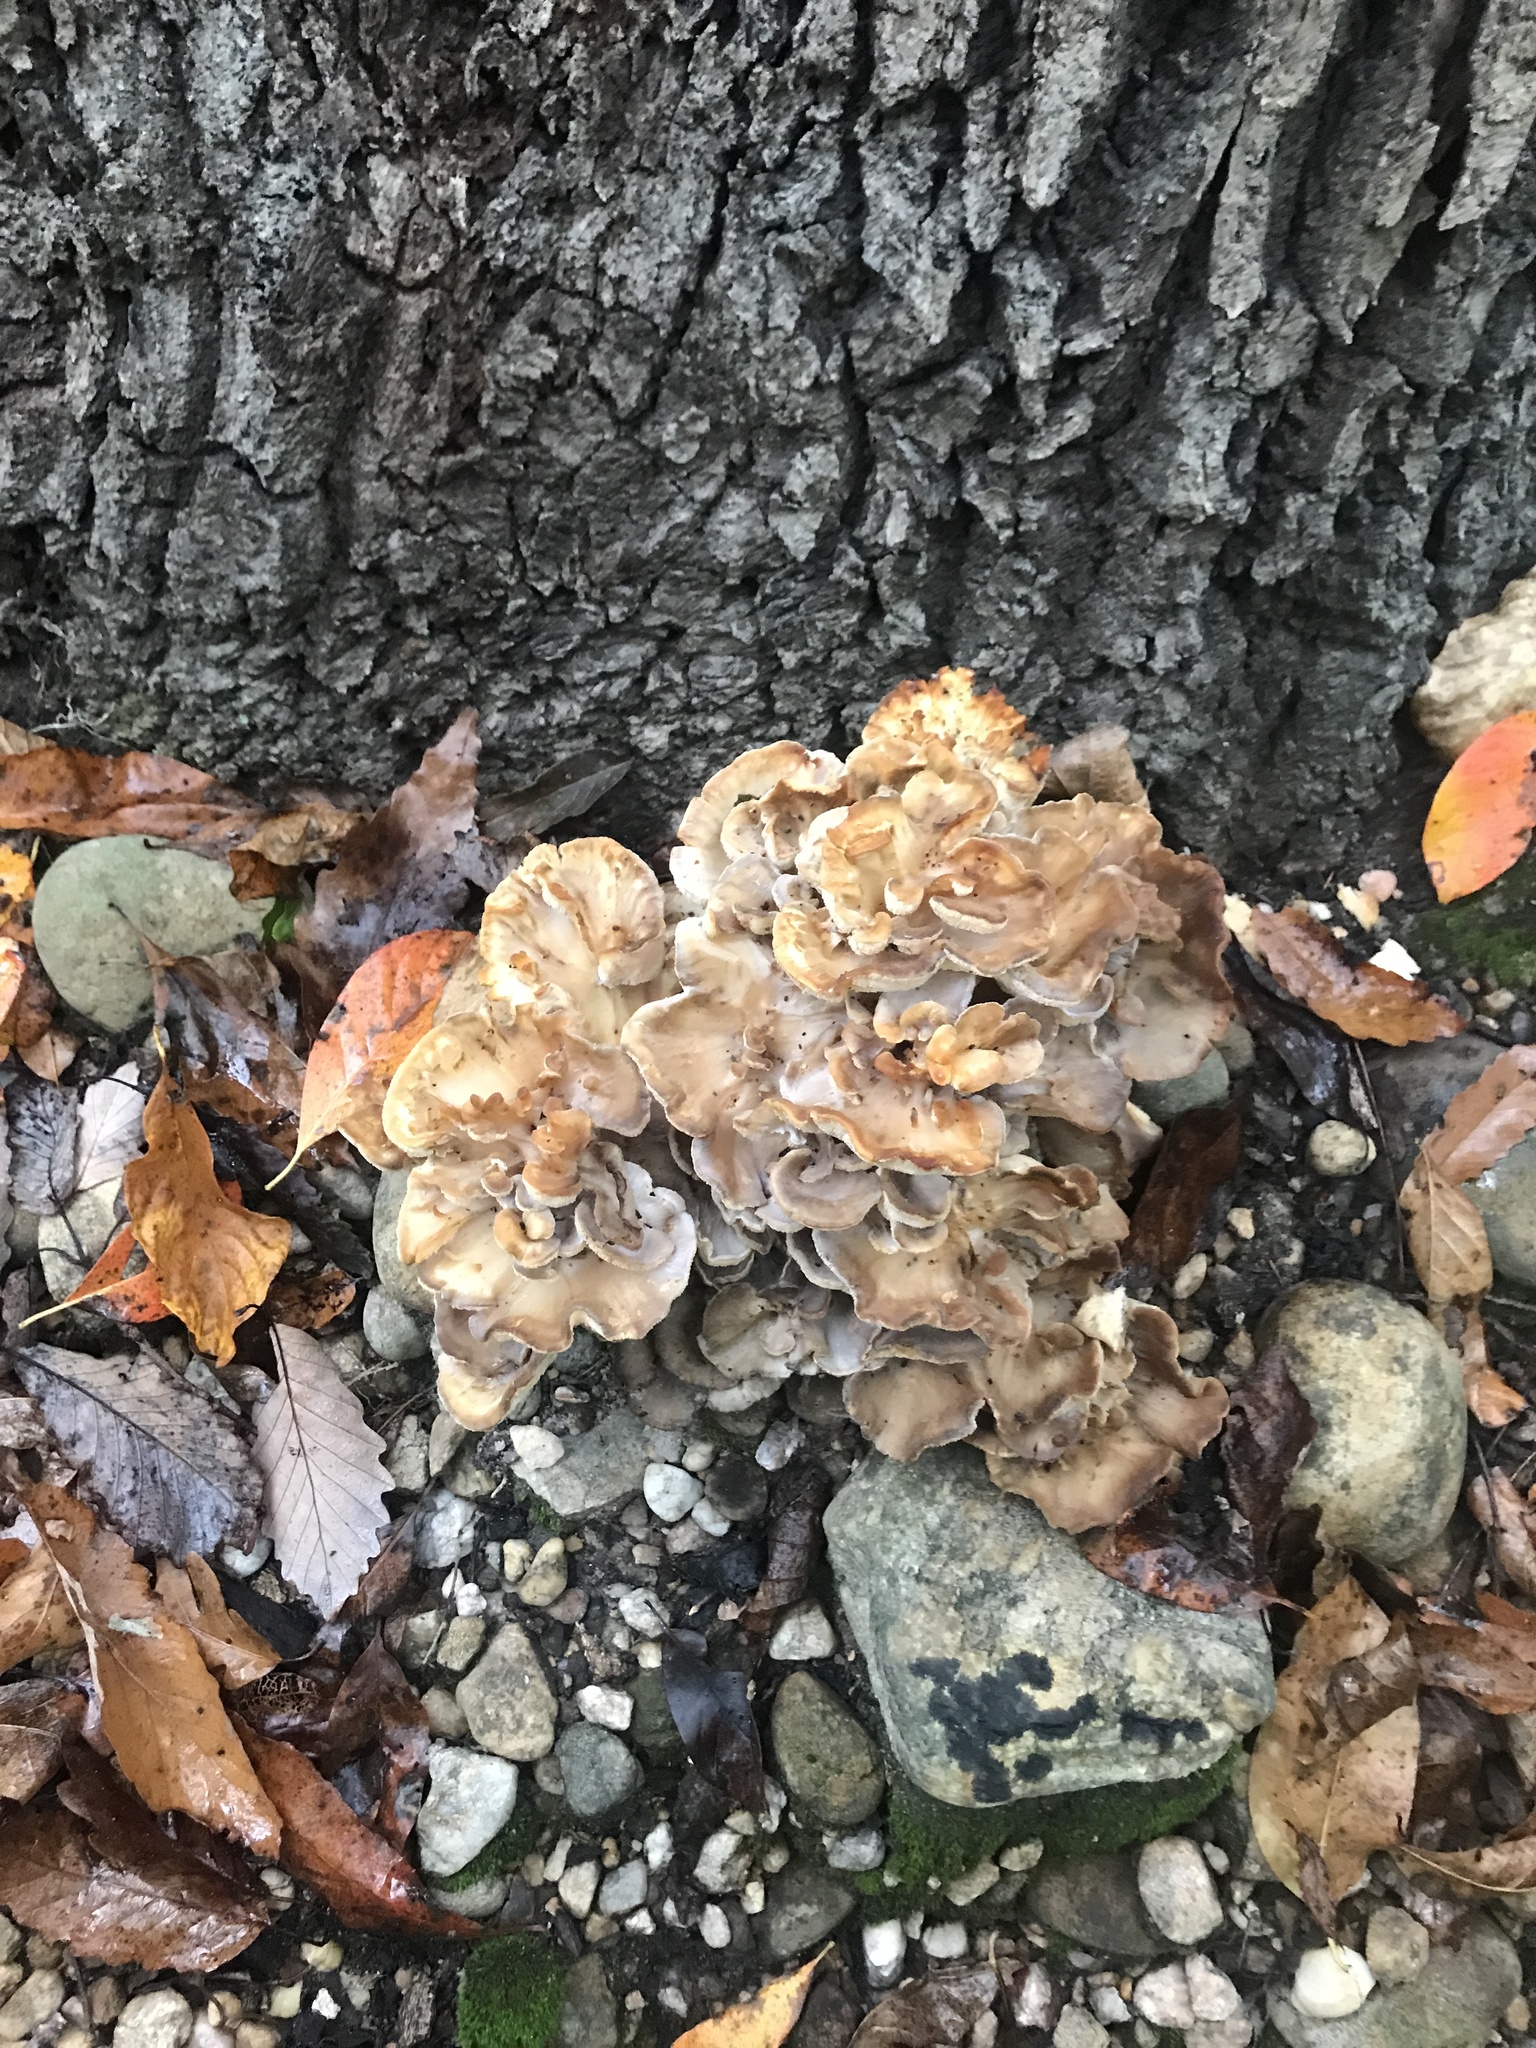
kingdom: Fungi
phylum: Basidiomycota
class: Agaricomycetes
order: Polyporales
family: Grifolaceae
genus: Grifola
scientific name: Grifola frondosa
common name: Hen of the woods
